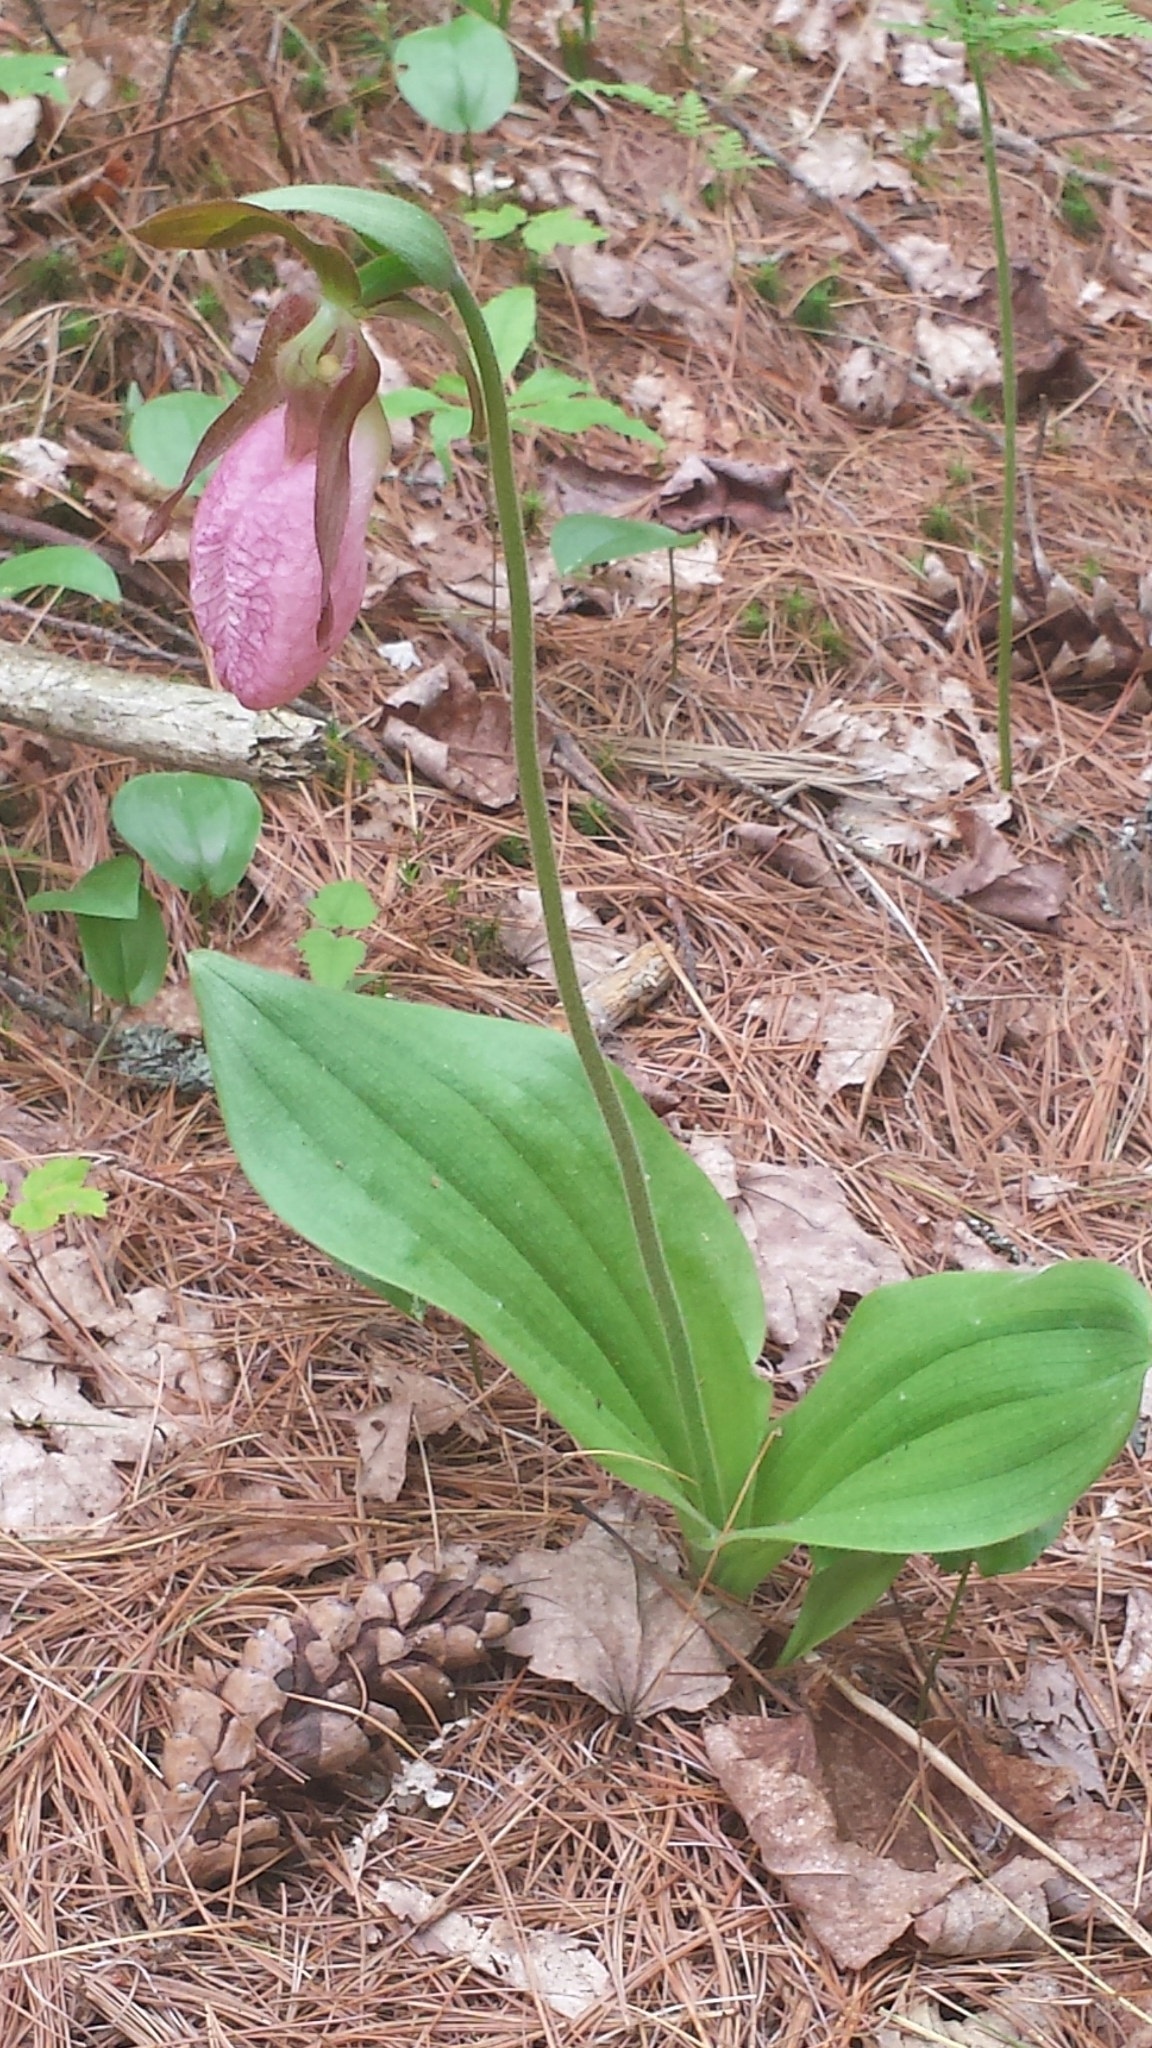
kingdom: Plantae
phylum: Tracheophyta
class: Liliopsida
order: Asparagales
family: Orchidaceae
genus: Cypripedium
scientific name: Cypripedium acaule
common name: Pink lady's-slipper
